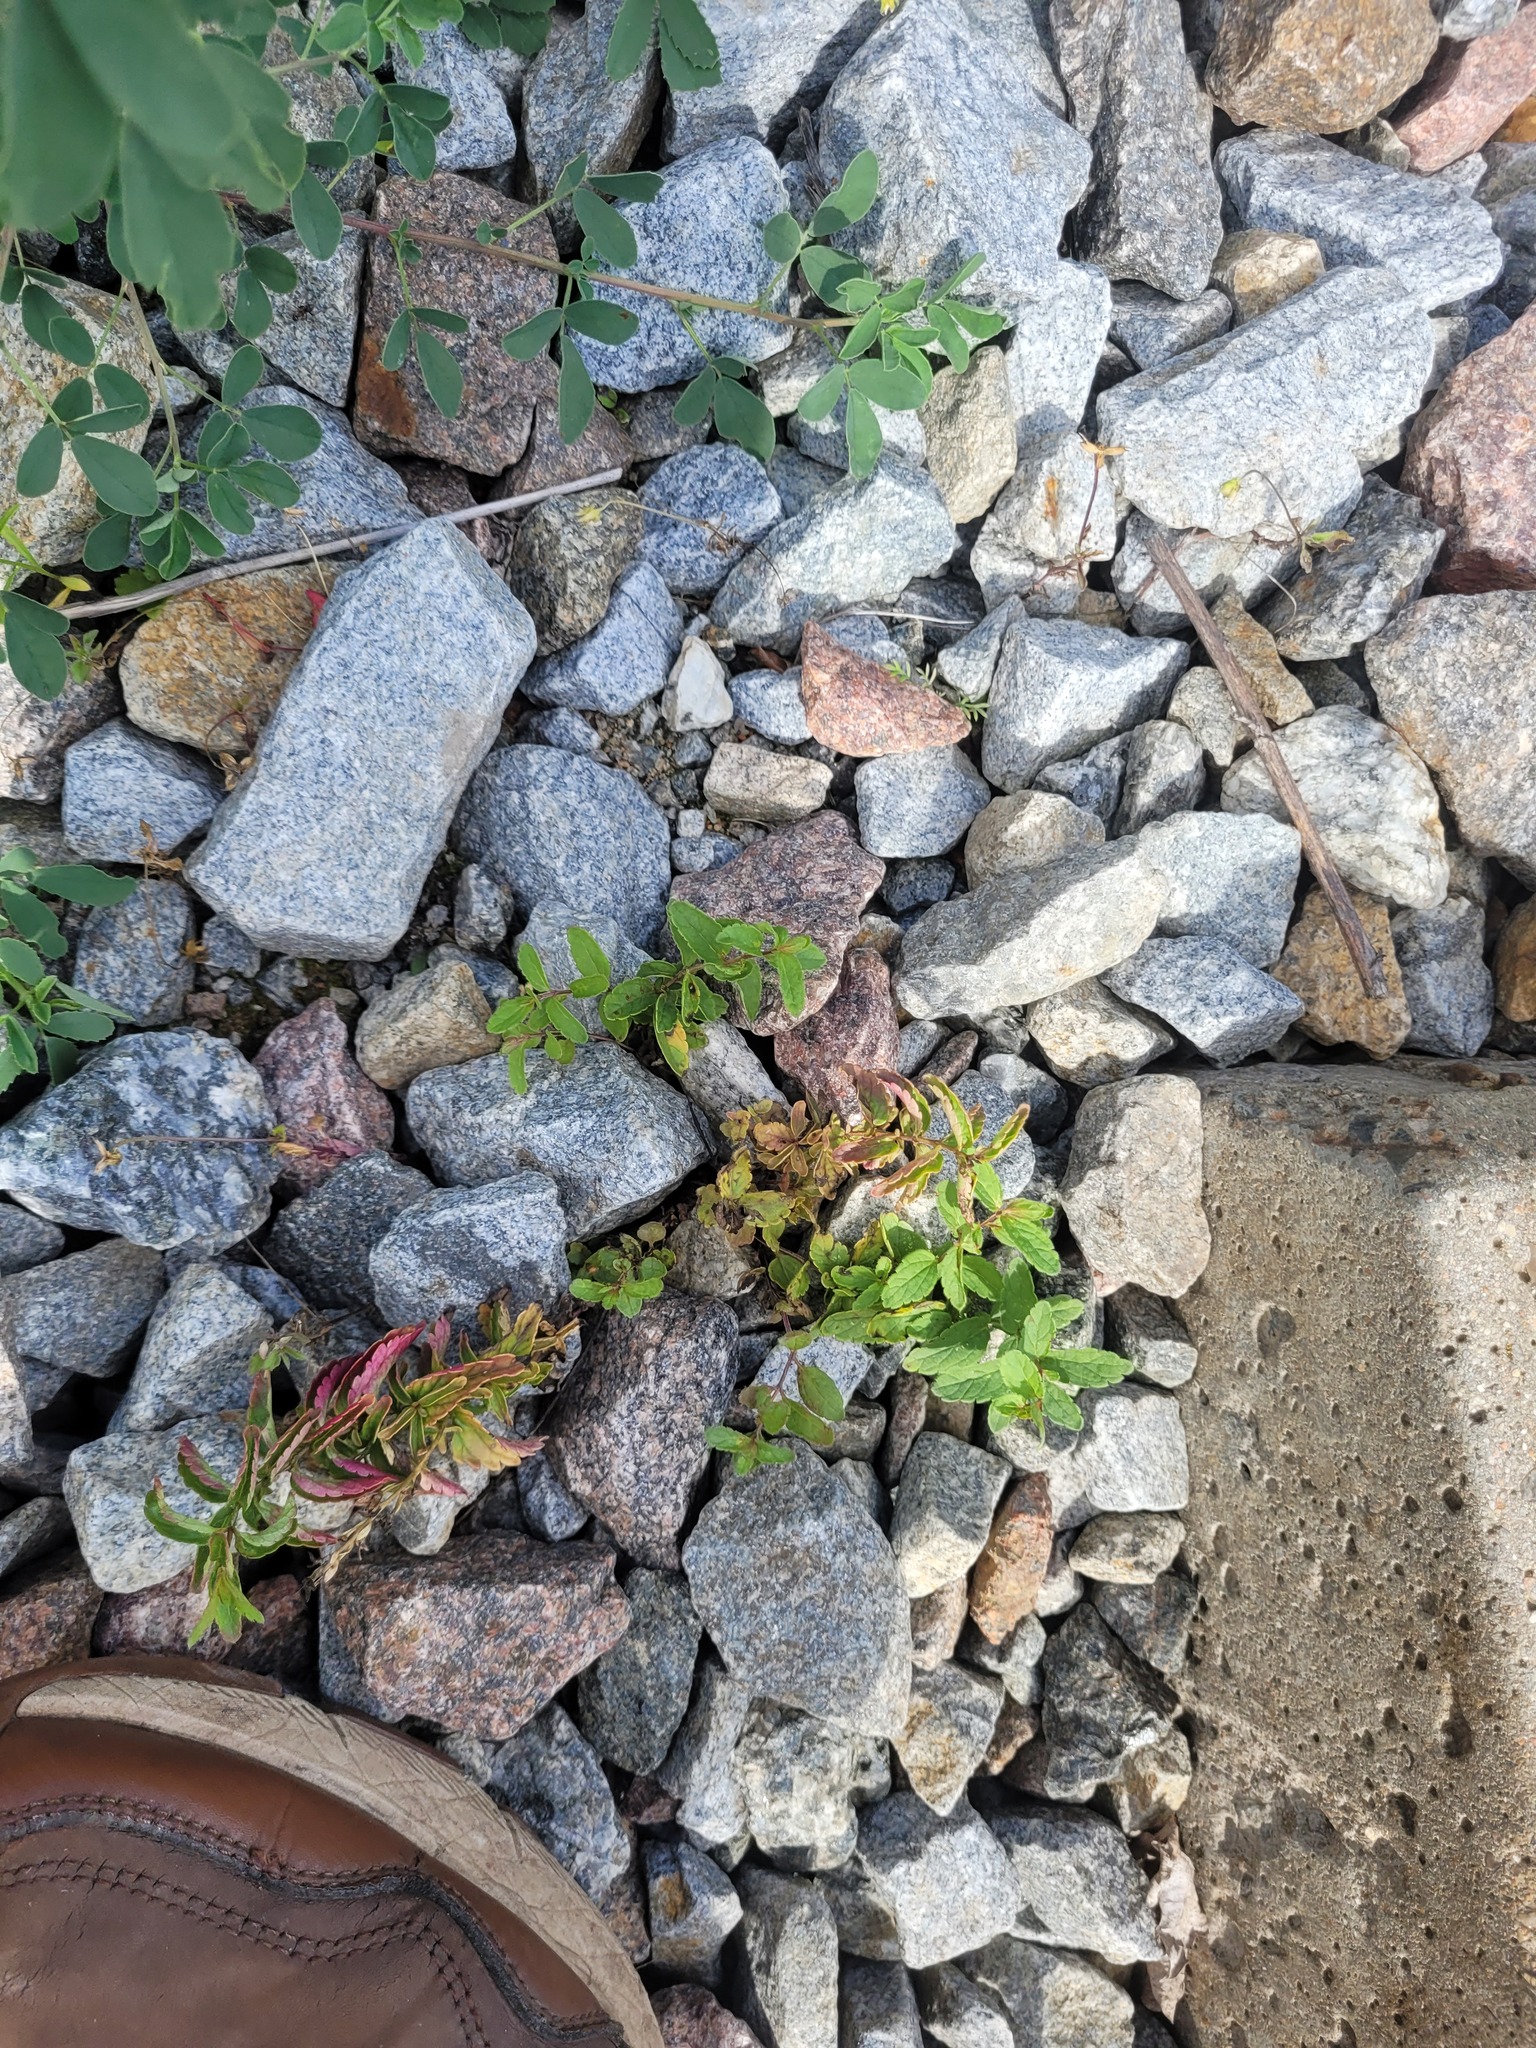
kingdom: Plantae
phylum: Tracheophyta
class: Magnoliopsida
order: Lamiales
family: Plantaginaceae
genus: Veronica
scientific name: Veronica chamaedrys
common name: Germander speedwell
